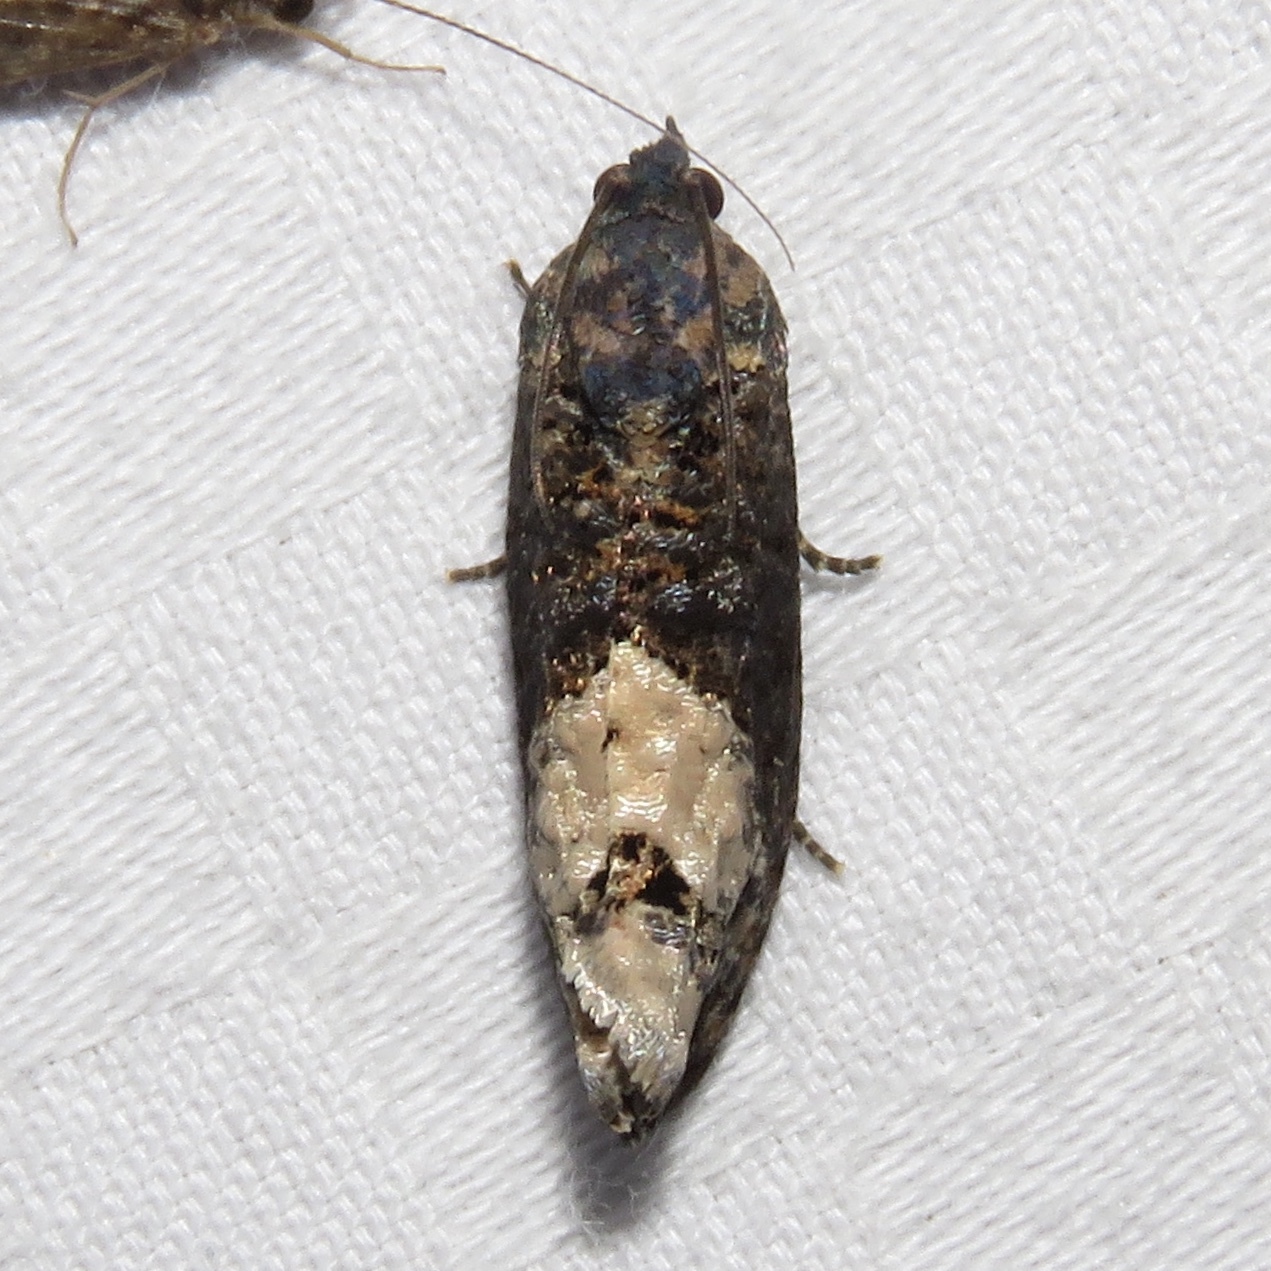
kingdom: Animalia
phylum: Arthropoda
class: Insecta
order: Lepidoptera
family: Tortricidae
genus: Ecdytolopha
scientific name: Ecdytolopha insiticiana
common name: Locust twig borer moth
